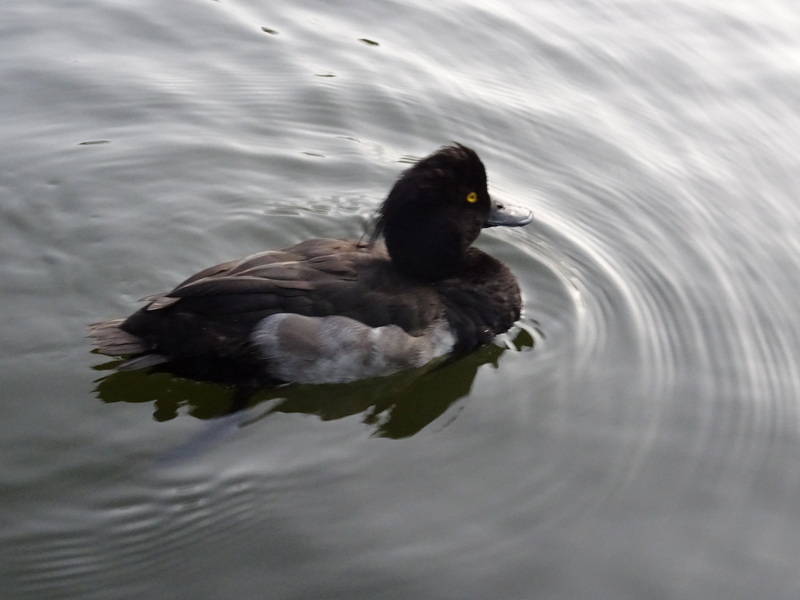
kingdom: Animalia
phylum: Chordata
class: Aves
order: Anseriformes
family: Anatidae
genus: Aythya
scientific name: Aythya fuligula
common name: Tufted duck
